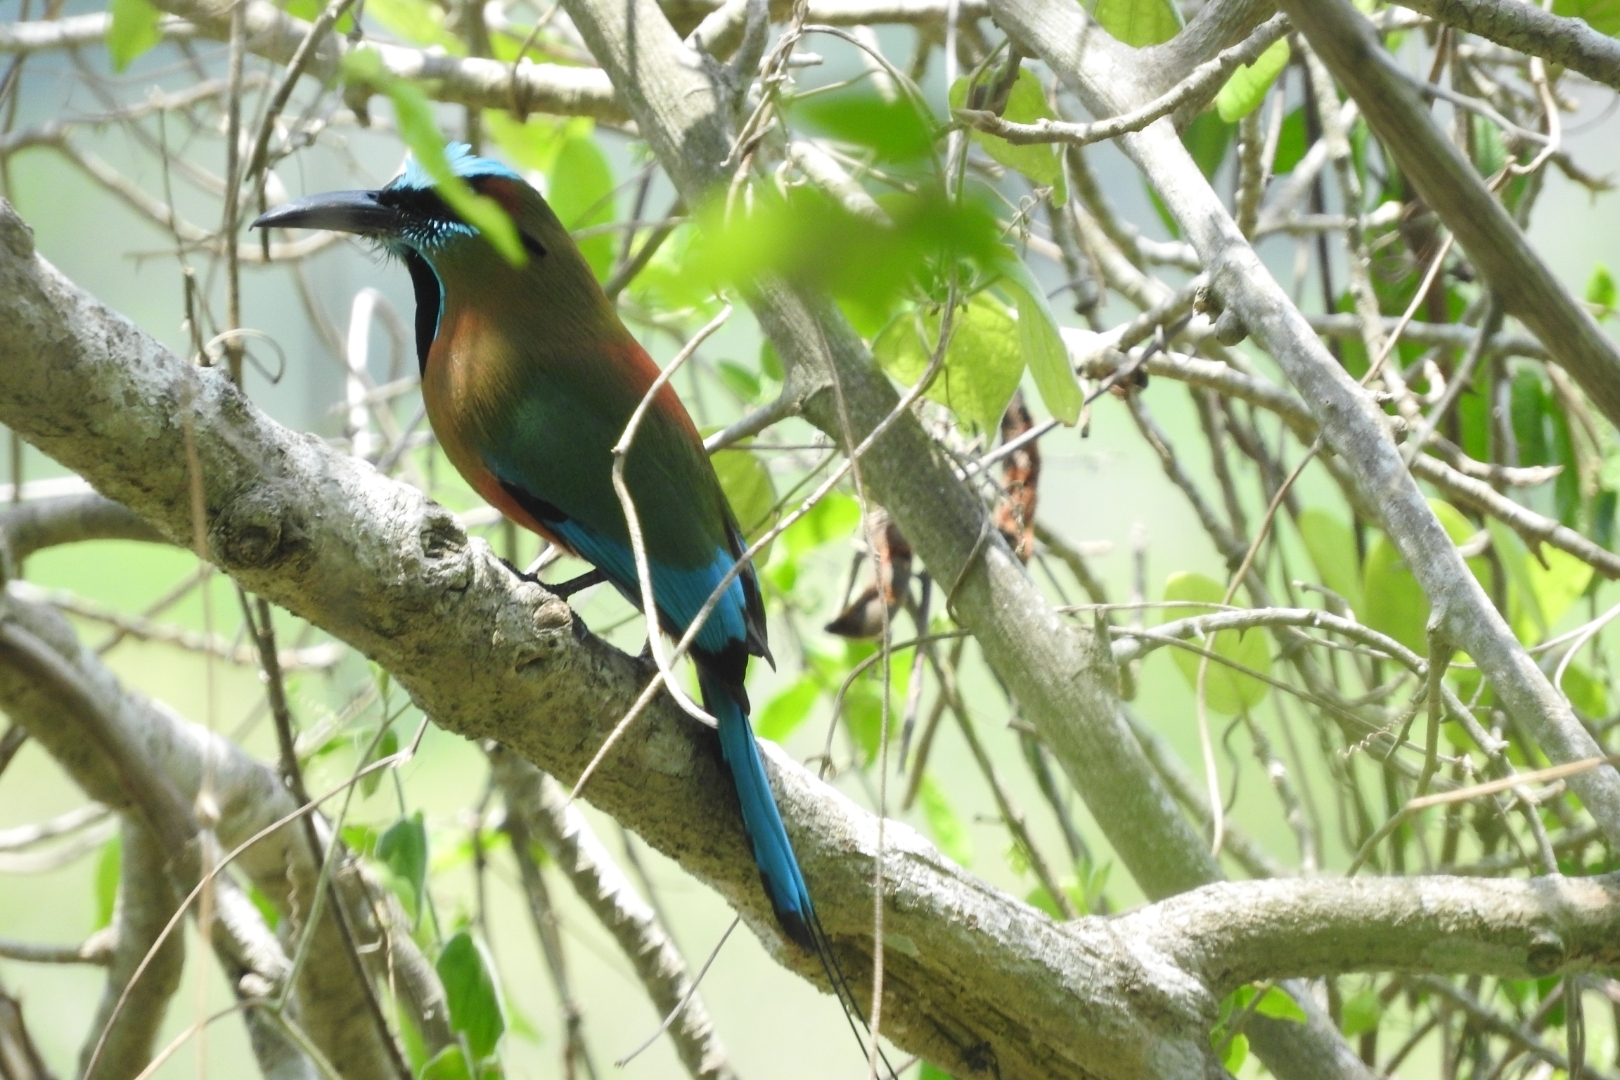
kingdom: Animalia
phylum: Chordata
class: Aves
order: Coraciiformes
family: Momotidae
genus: Eumomota
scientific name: Eumomota superciliosa
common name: Turquoise-browed motmot
